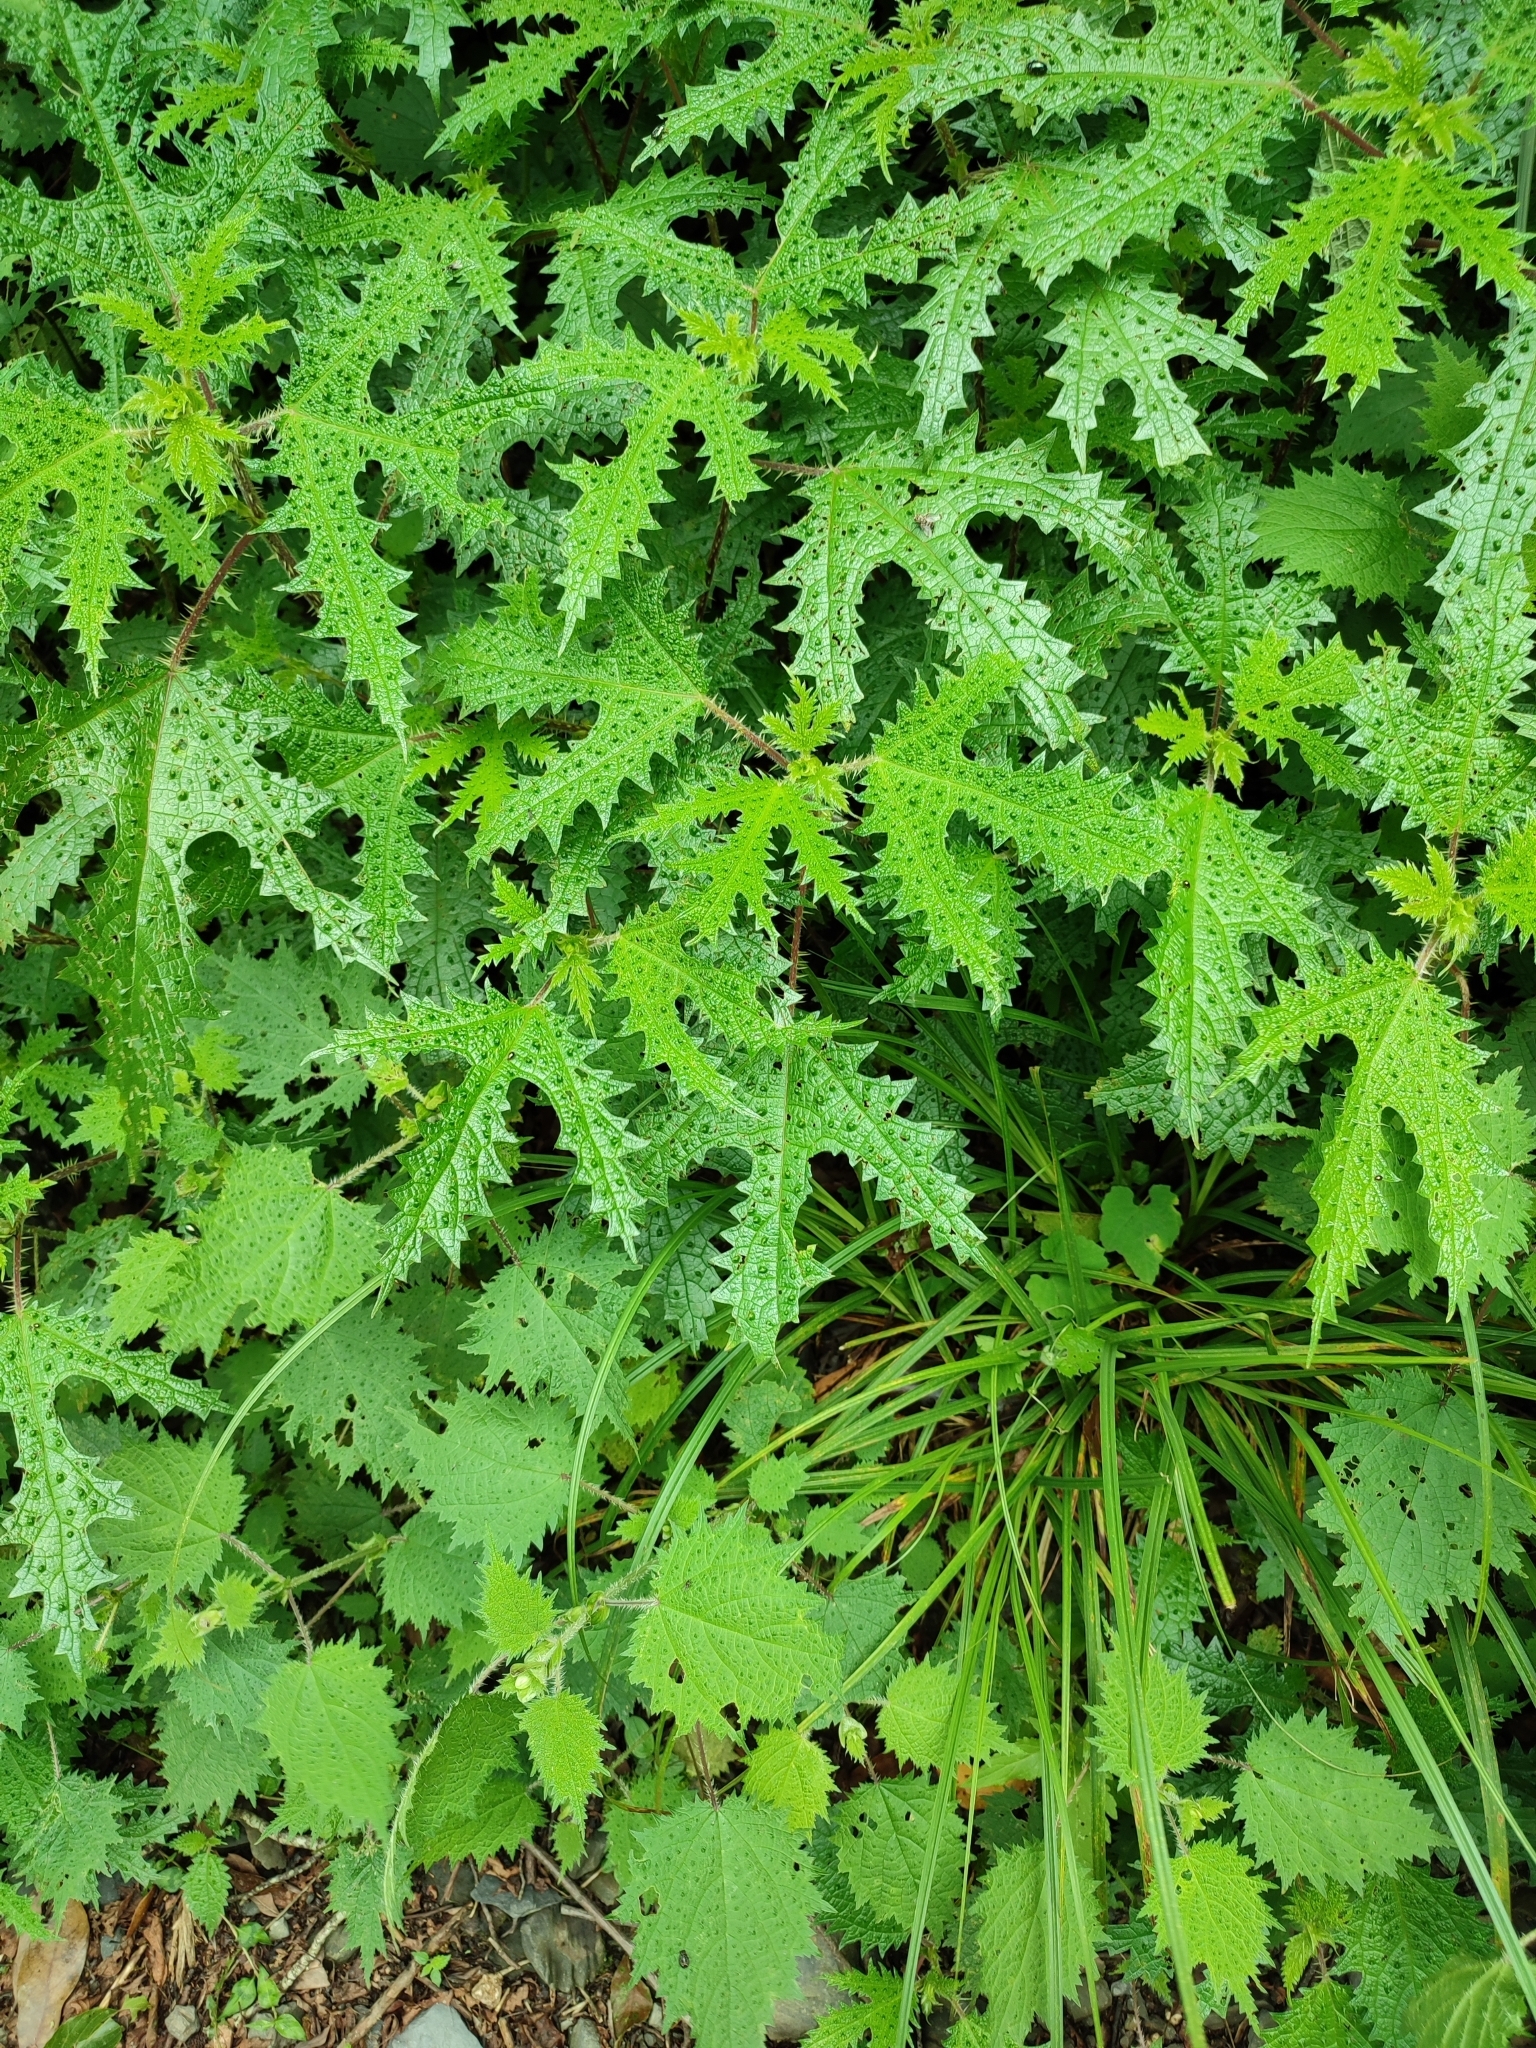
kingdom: Plantae
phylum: Tracheophyta
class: Magnoliopsida
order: Rosales
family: Urticaceae
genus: Girardinia
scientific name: Girardinia diversifolia
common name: Himalayan-nettle
